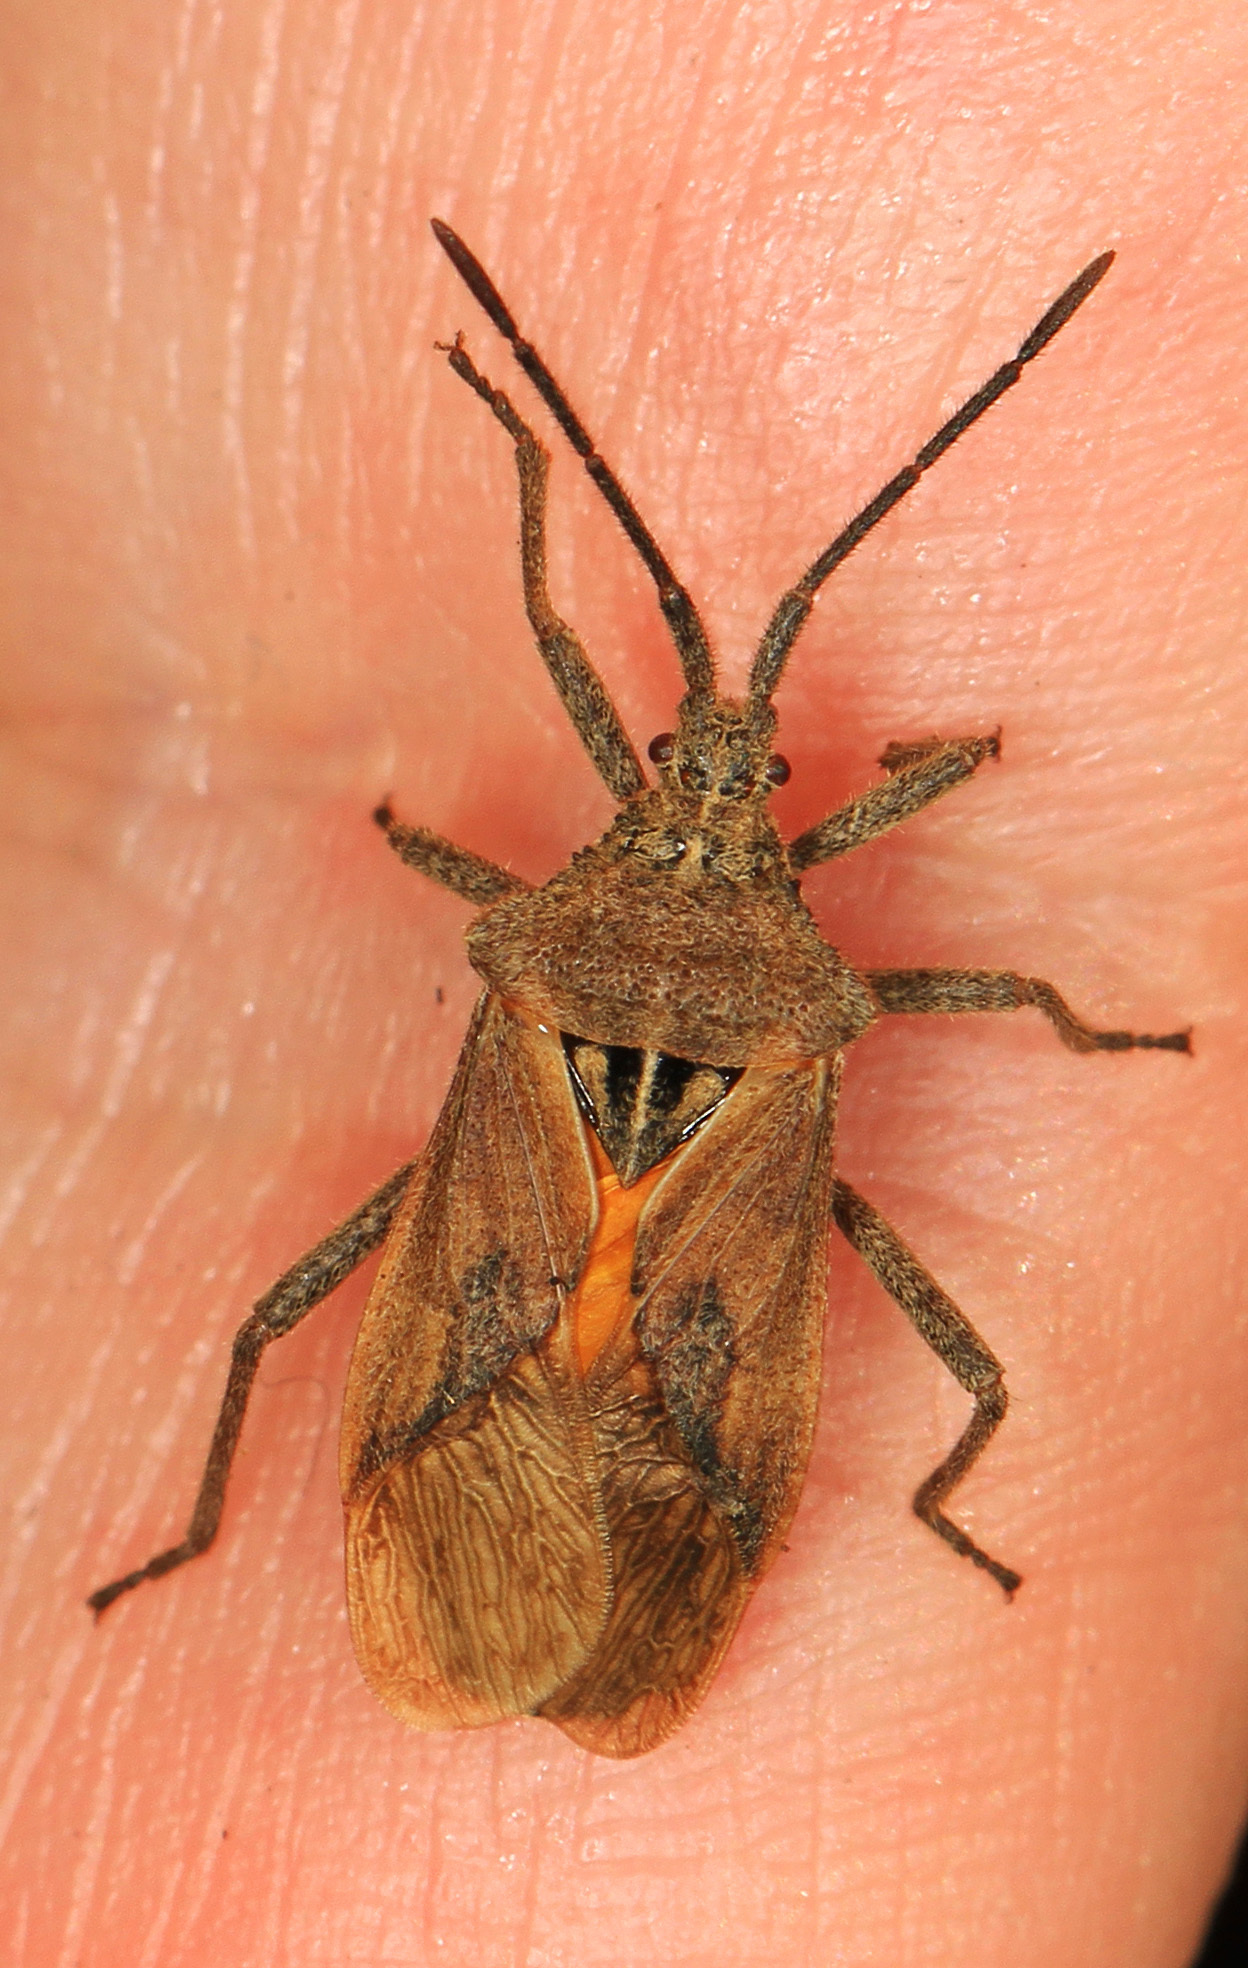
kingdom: Animalia
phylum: Arthropoda
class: Insecta
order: Hemiptera
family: Coreidae
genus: Eubule
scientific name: Eubule spartocerana
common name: Leaf-footed bug
